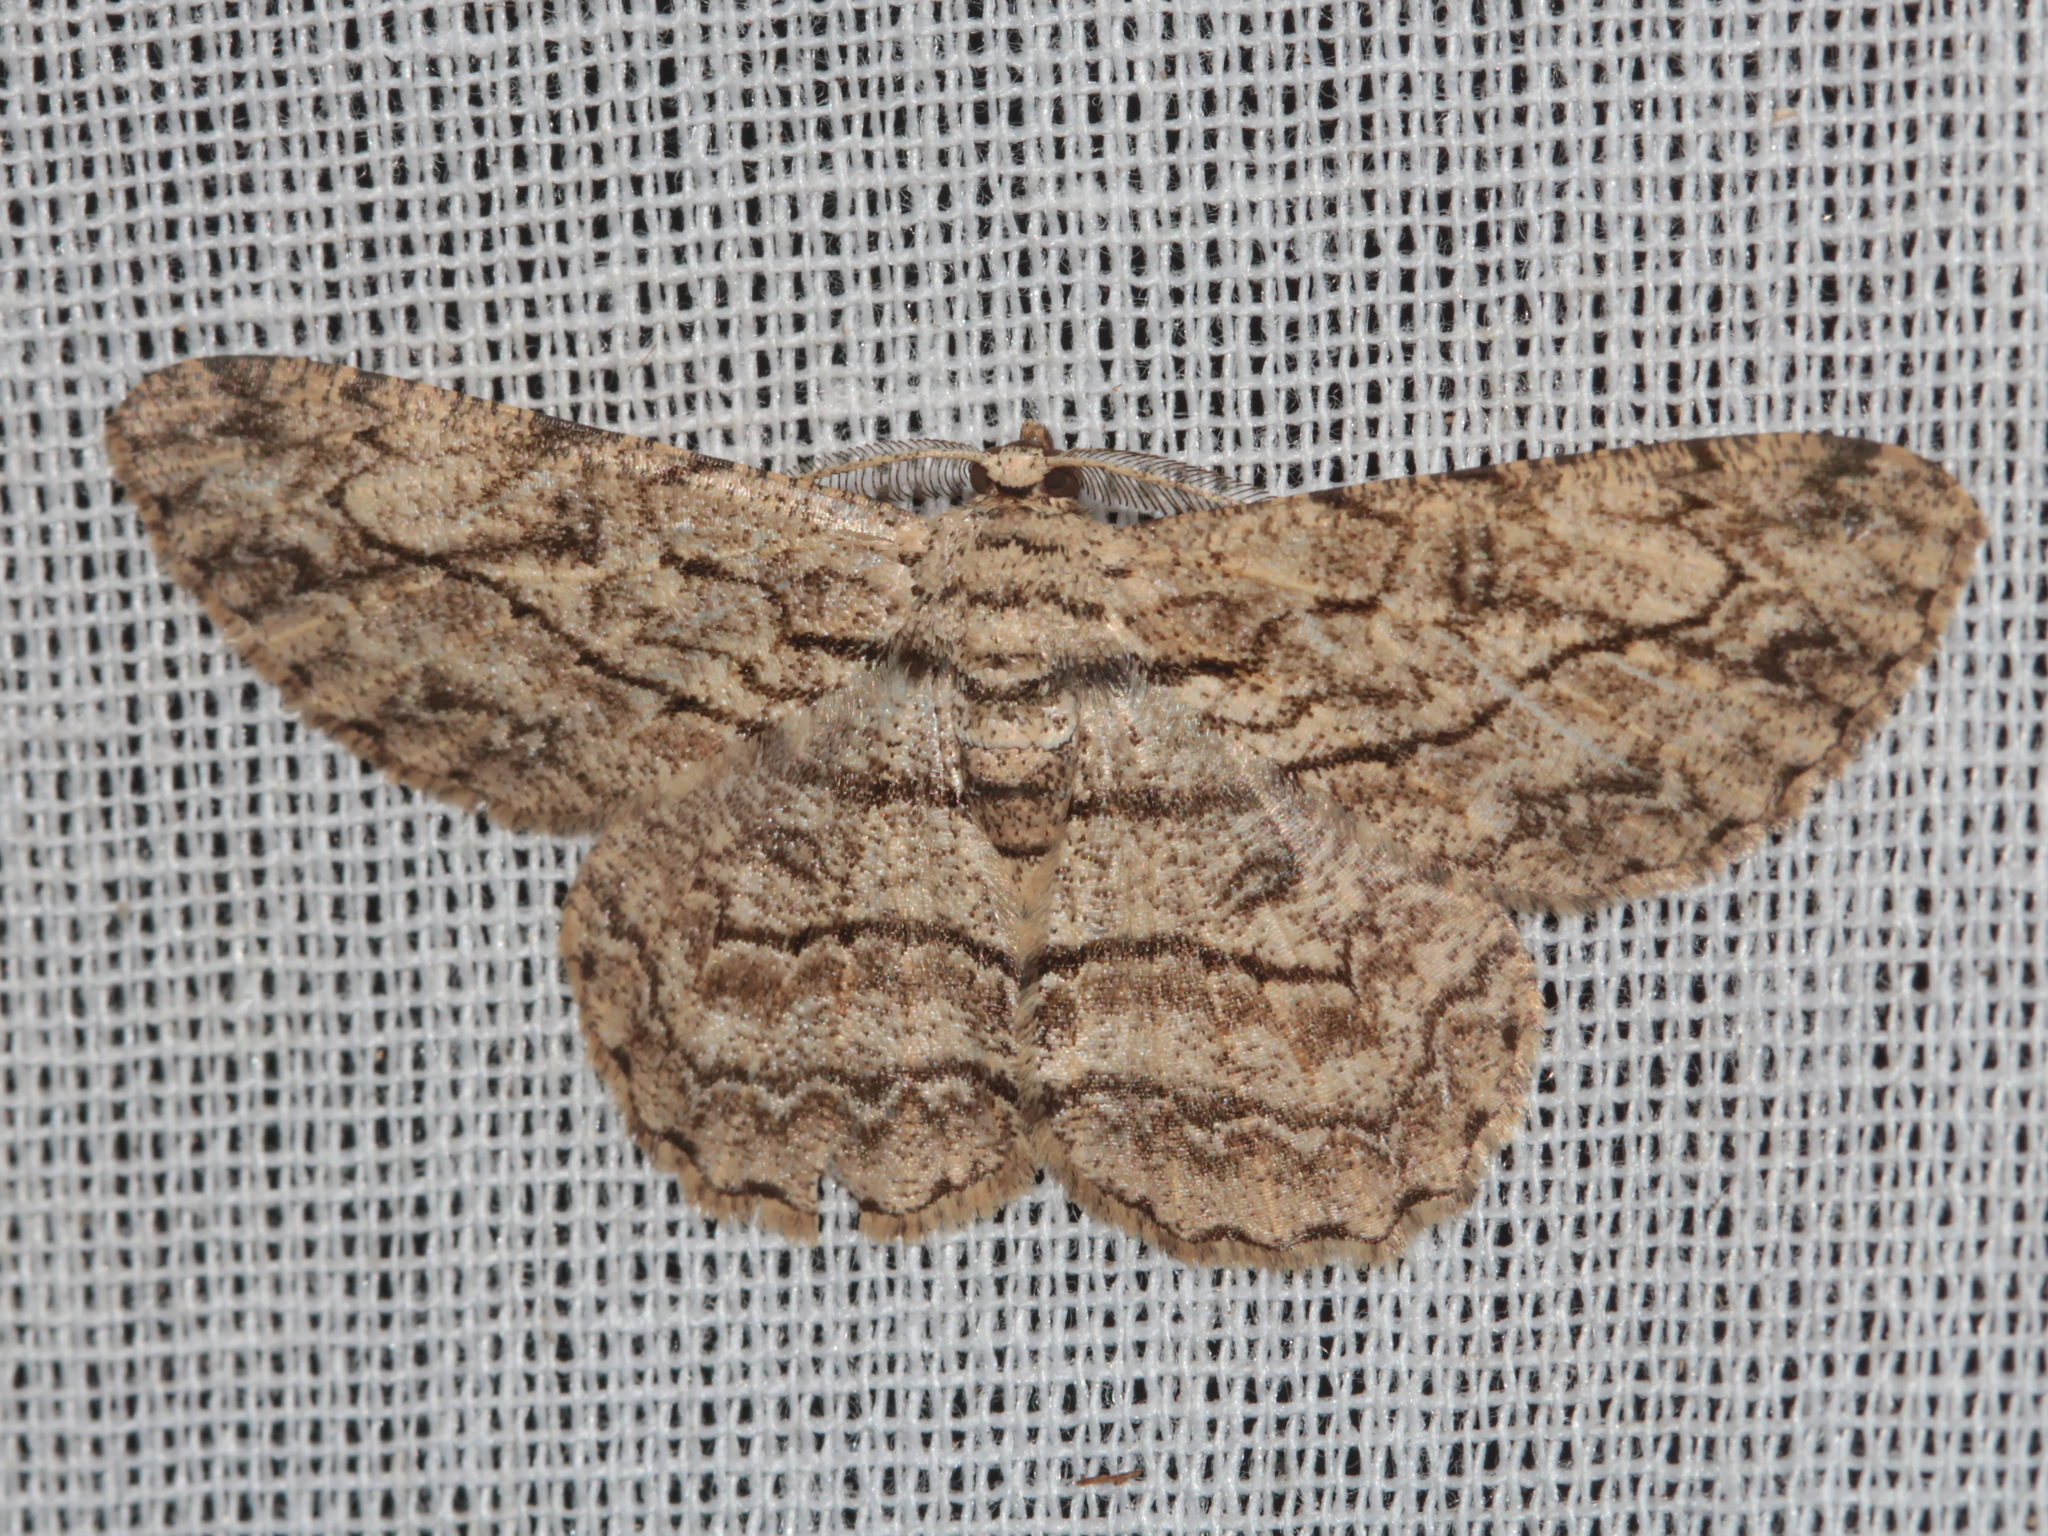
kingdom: Animalia
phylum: Arthropoda
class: Insecta
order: Lepidoptera
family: Geometridae
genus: Hypomecis
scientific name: Hypomecis transcissa
